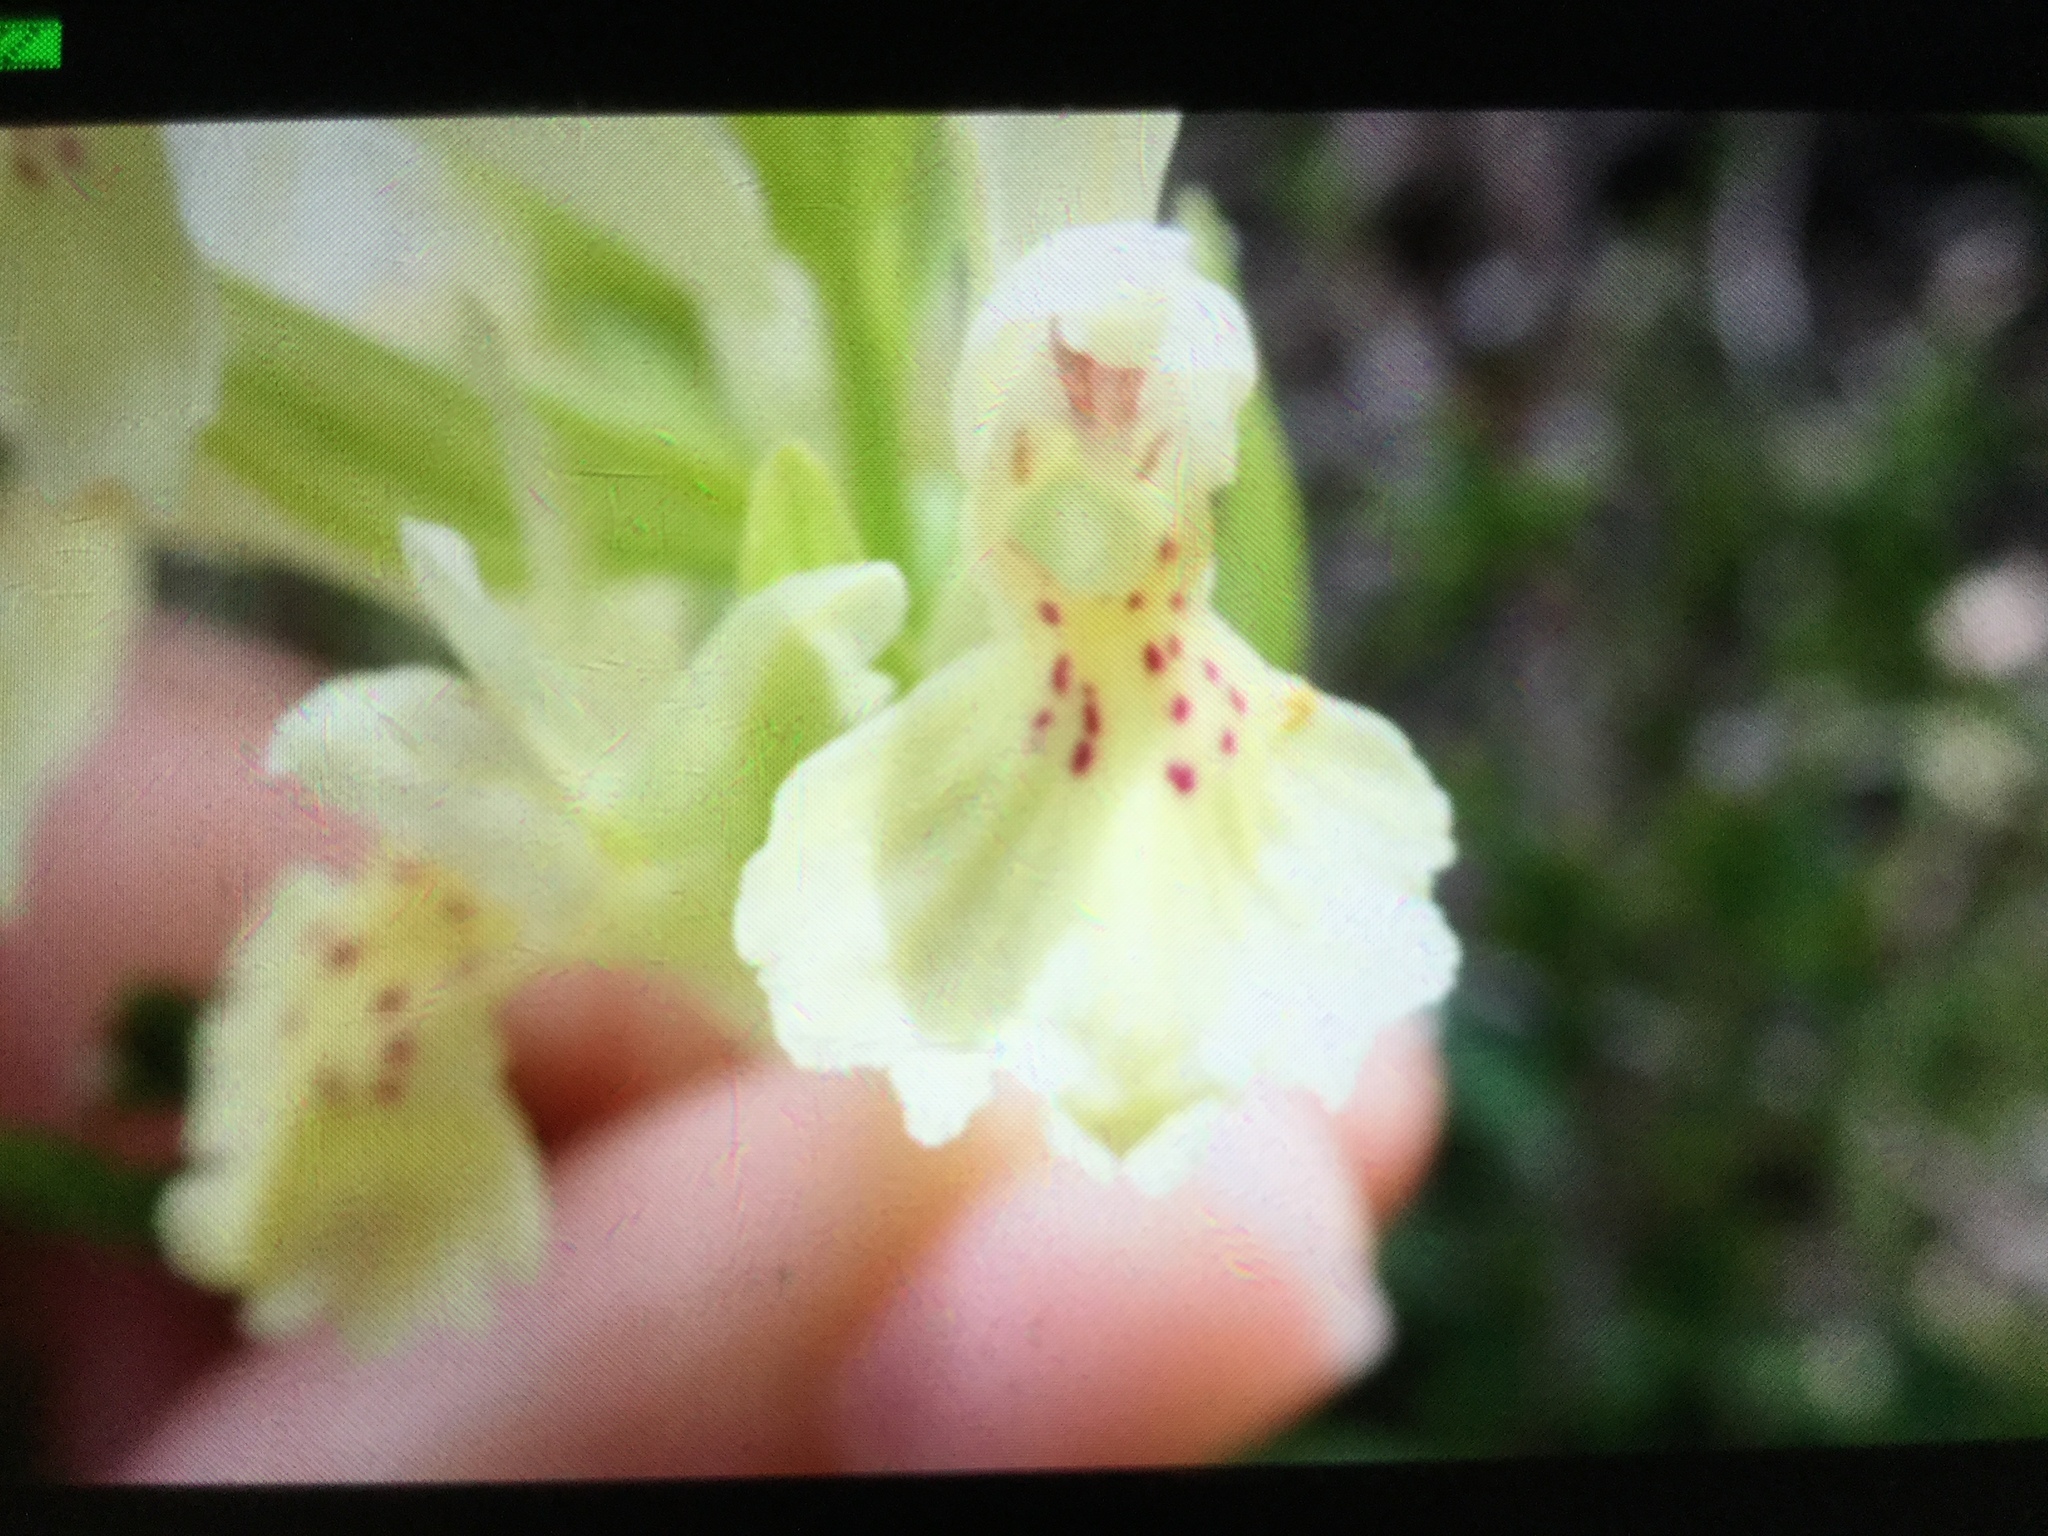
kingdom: Plantae
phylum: Tracheophyta
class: Liliopsida
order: Asparagales
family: Orchidaceae
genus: Dactylorhiza
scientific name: Dactylorhiza sambucina
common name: Elder-flowered orchid
